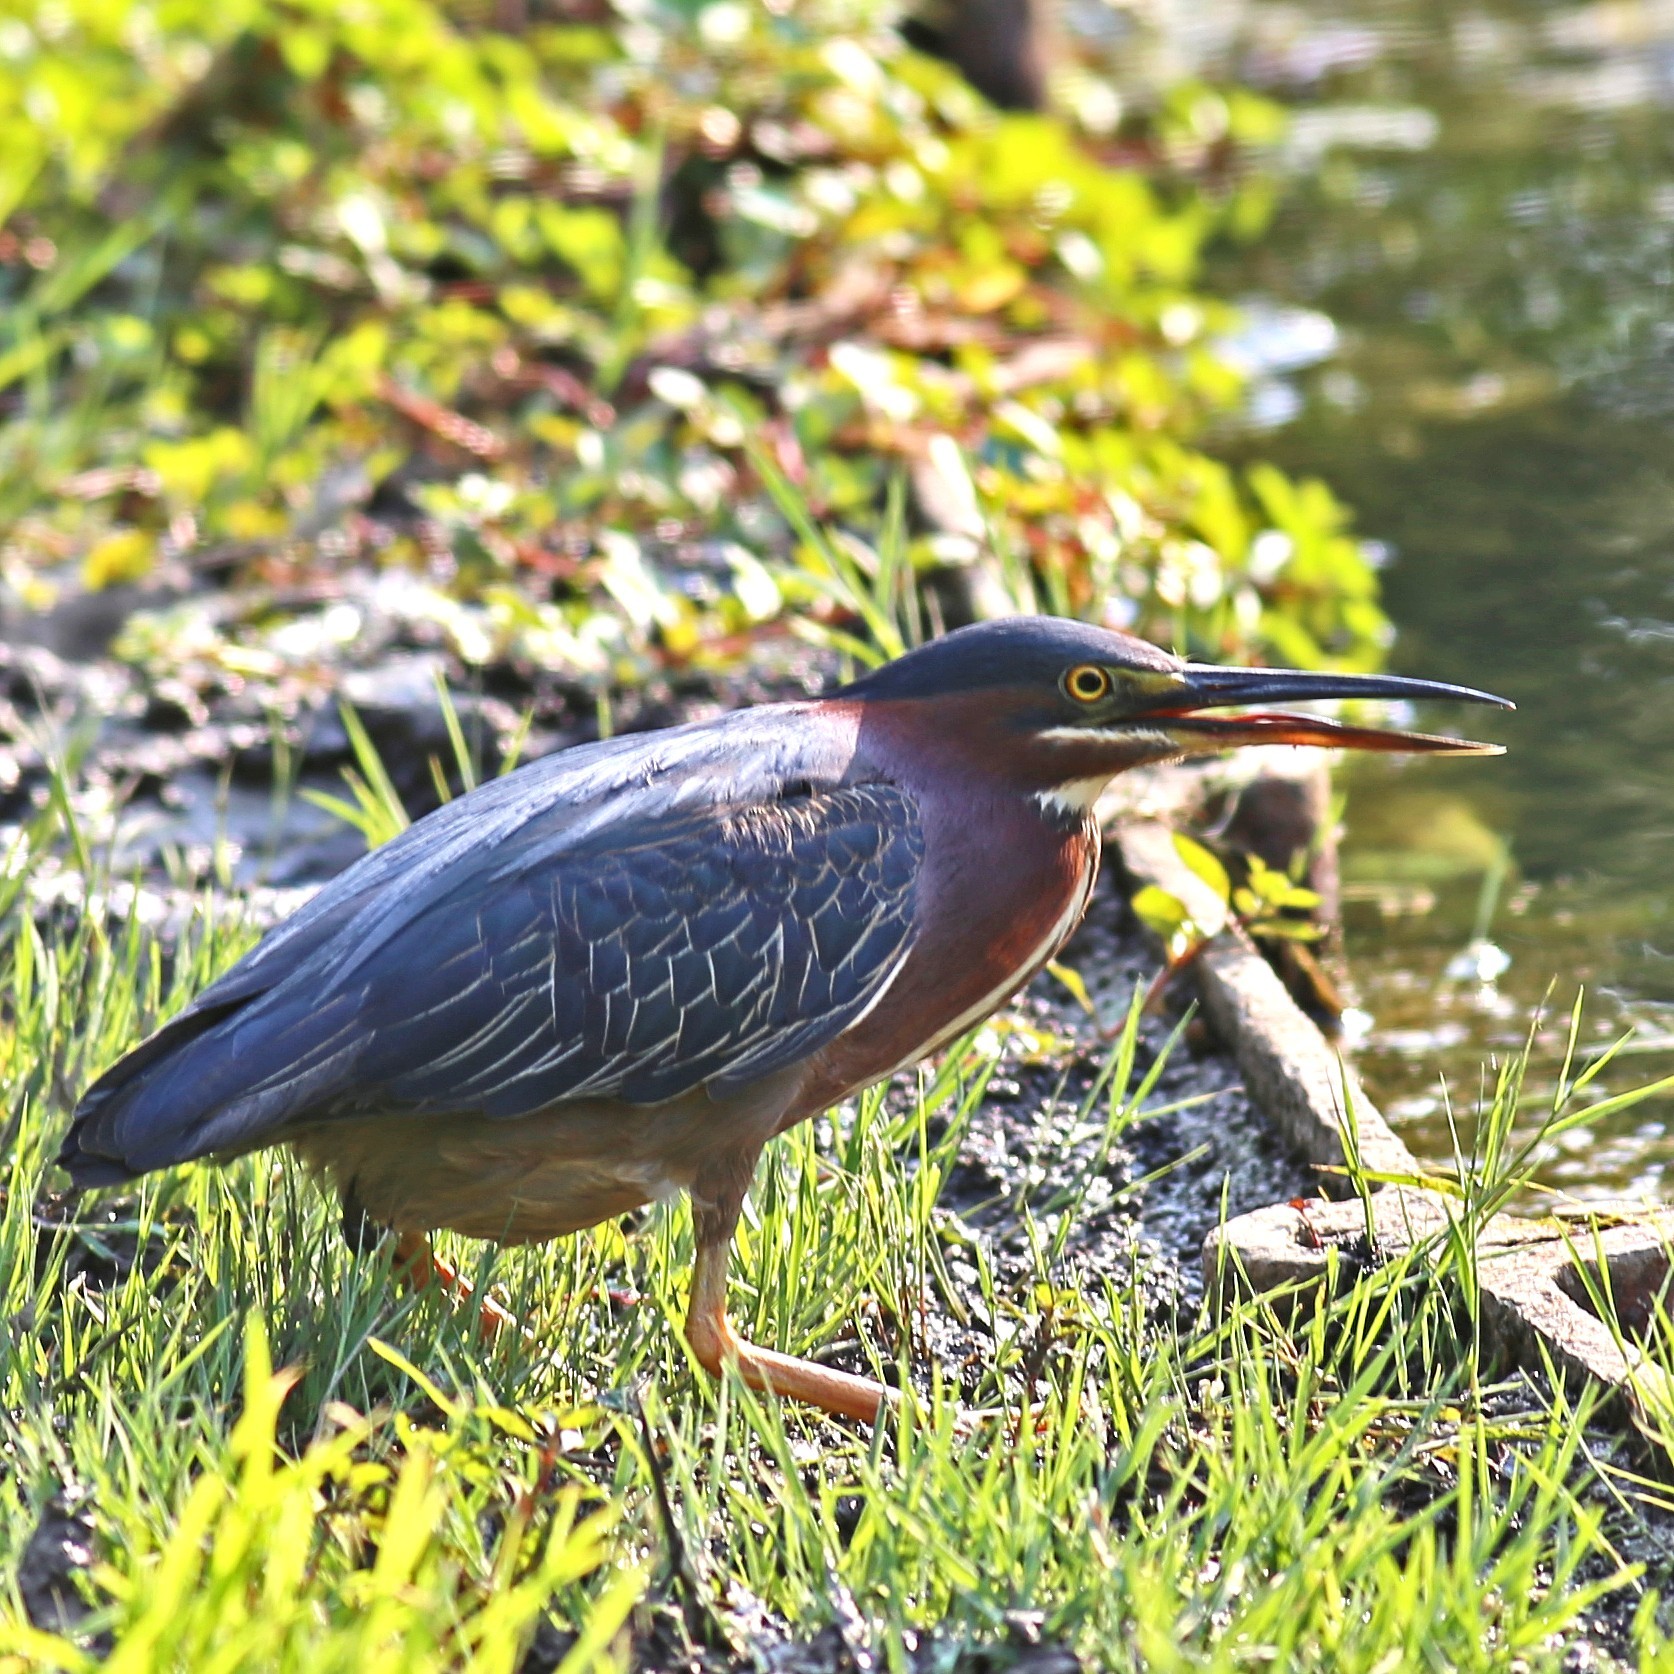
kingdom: Animalia
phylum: Chordata
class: Aves
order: Pelecaniformes
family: Ardeidae
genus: Butorides
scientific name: Butorides virescens
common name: Green heron
